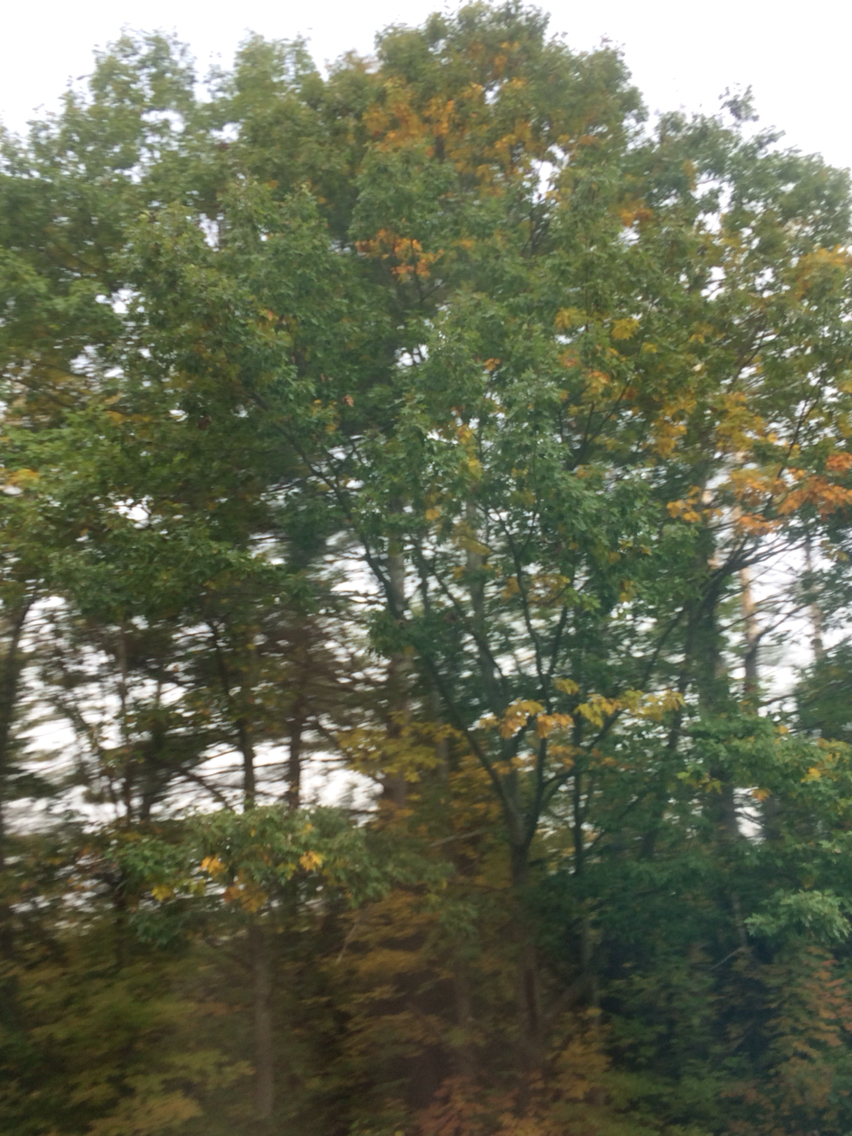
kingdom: Plantae
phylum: Tracheophyta
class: Magnoliopsida
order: Fagales
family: Fagaceae
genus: Quercus
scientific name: Quercus rubra
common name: Red oak
